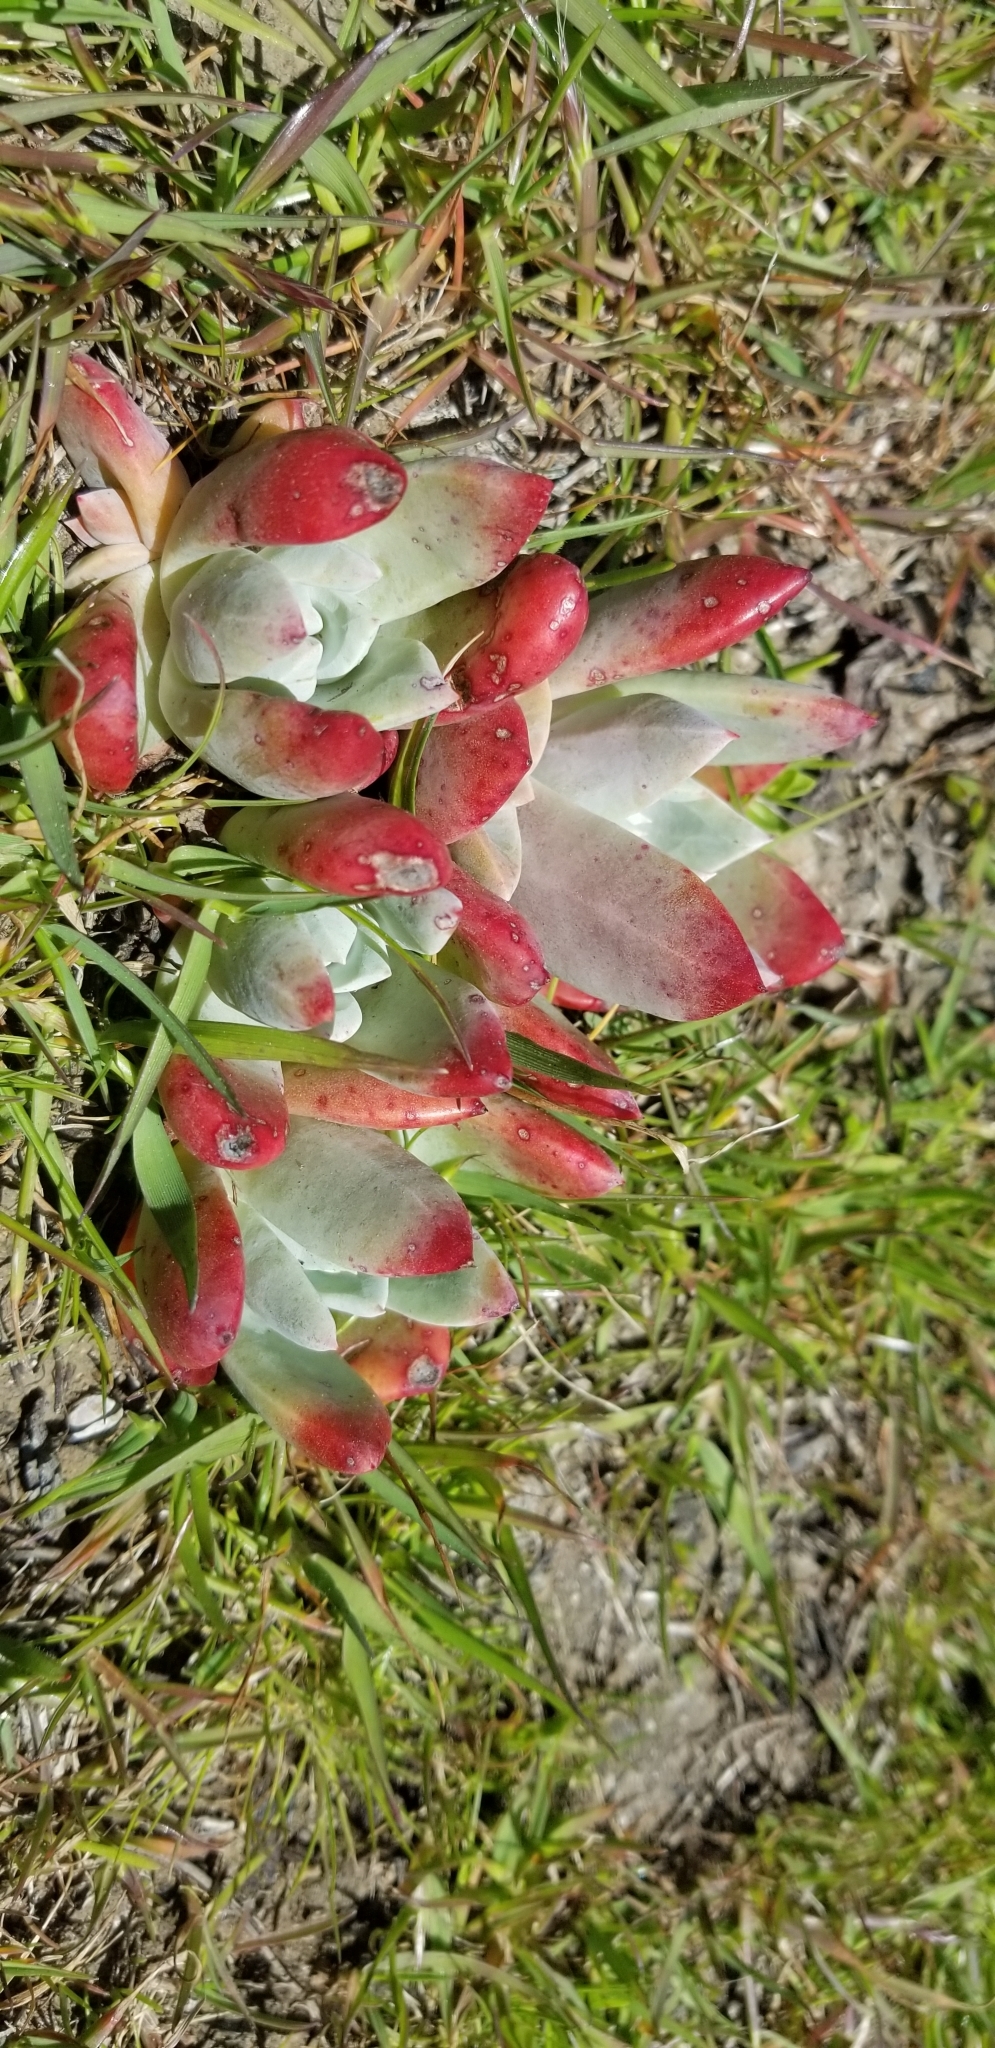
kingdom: Plantae
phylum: Tracheophyta
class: Magnoliopsida
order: Saxifragales
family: Crassulaceae
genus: Dudleya
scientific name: Dudleya farinosa
